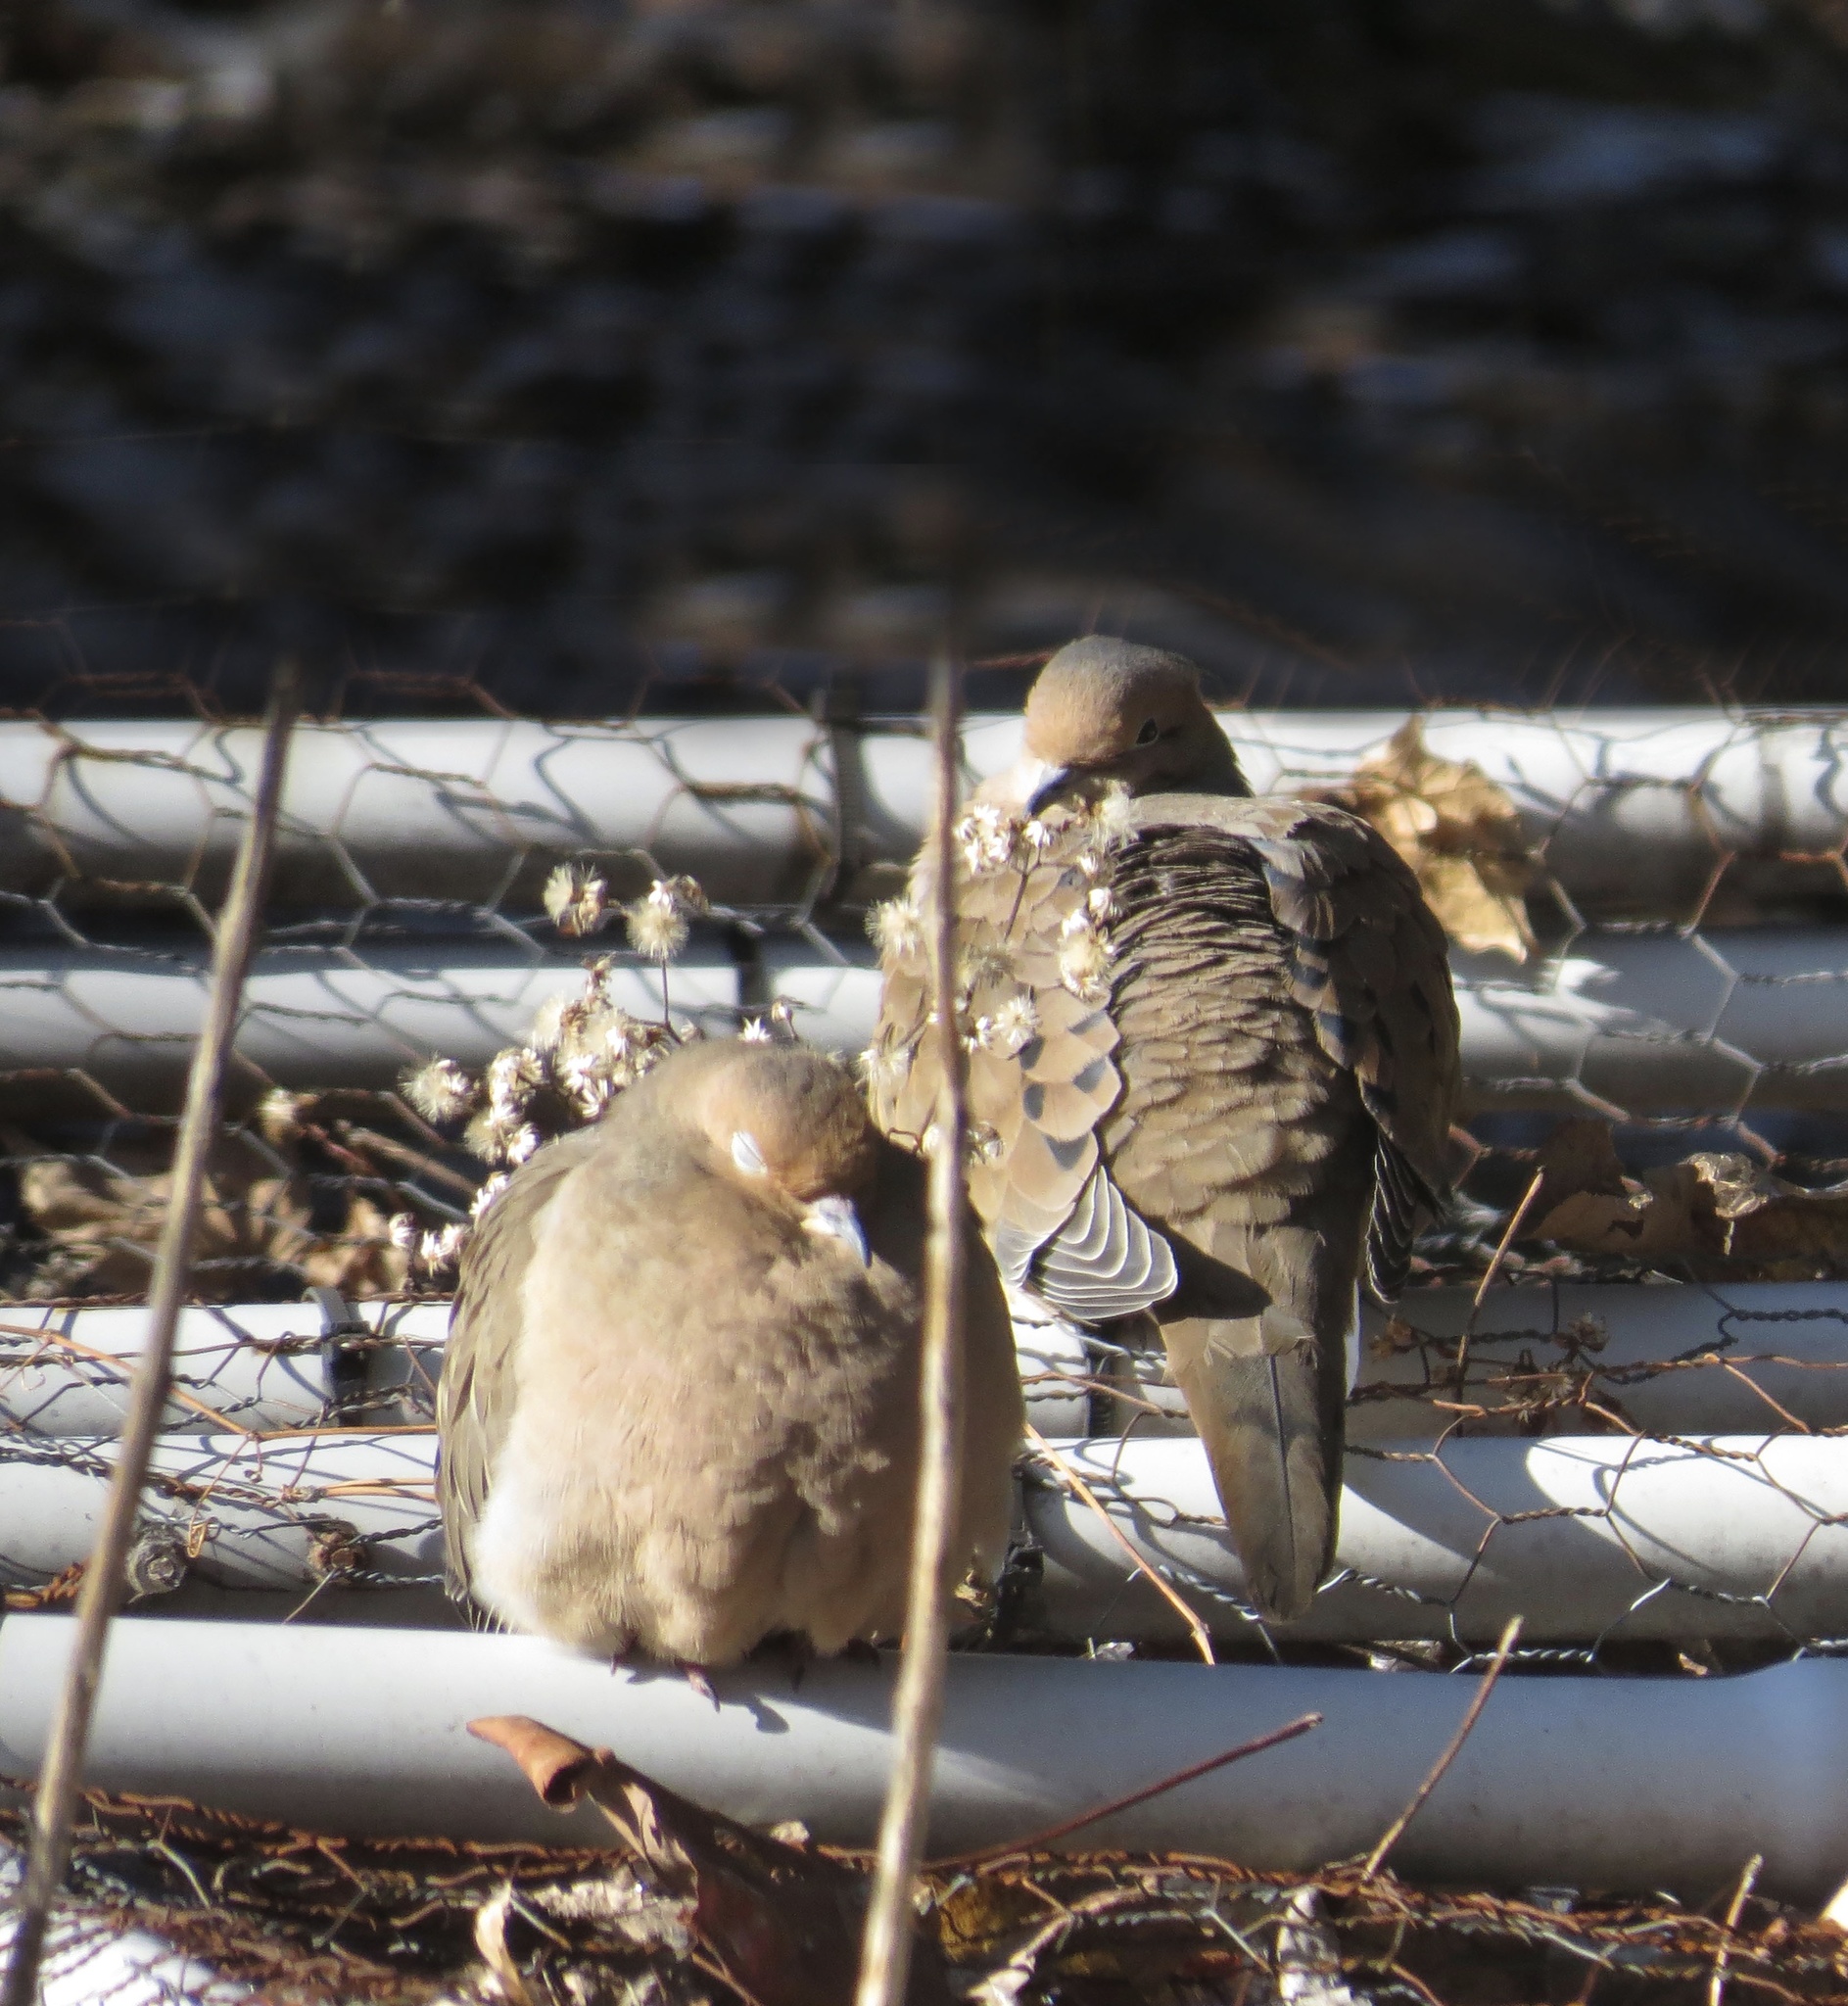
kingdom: Animalia
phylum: Chordata
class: Aves
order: Columbiformes
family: Columbidae
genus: Zenaida
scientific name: Zenaida macroura
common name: Mourning dove
